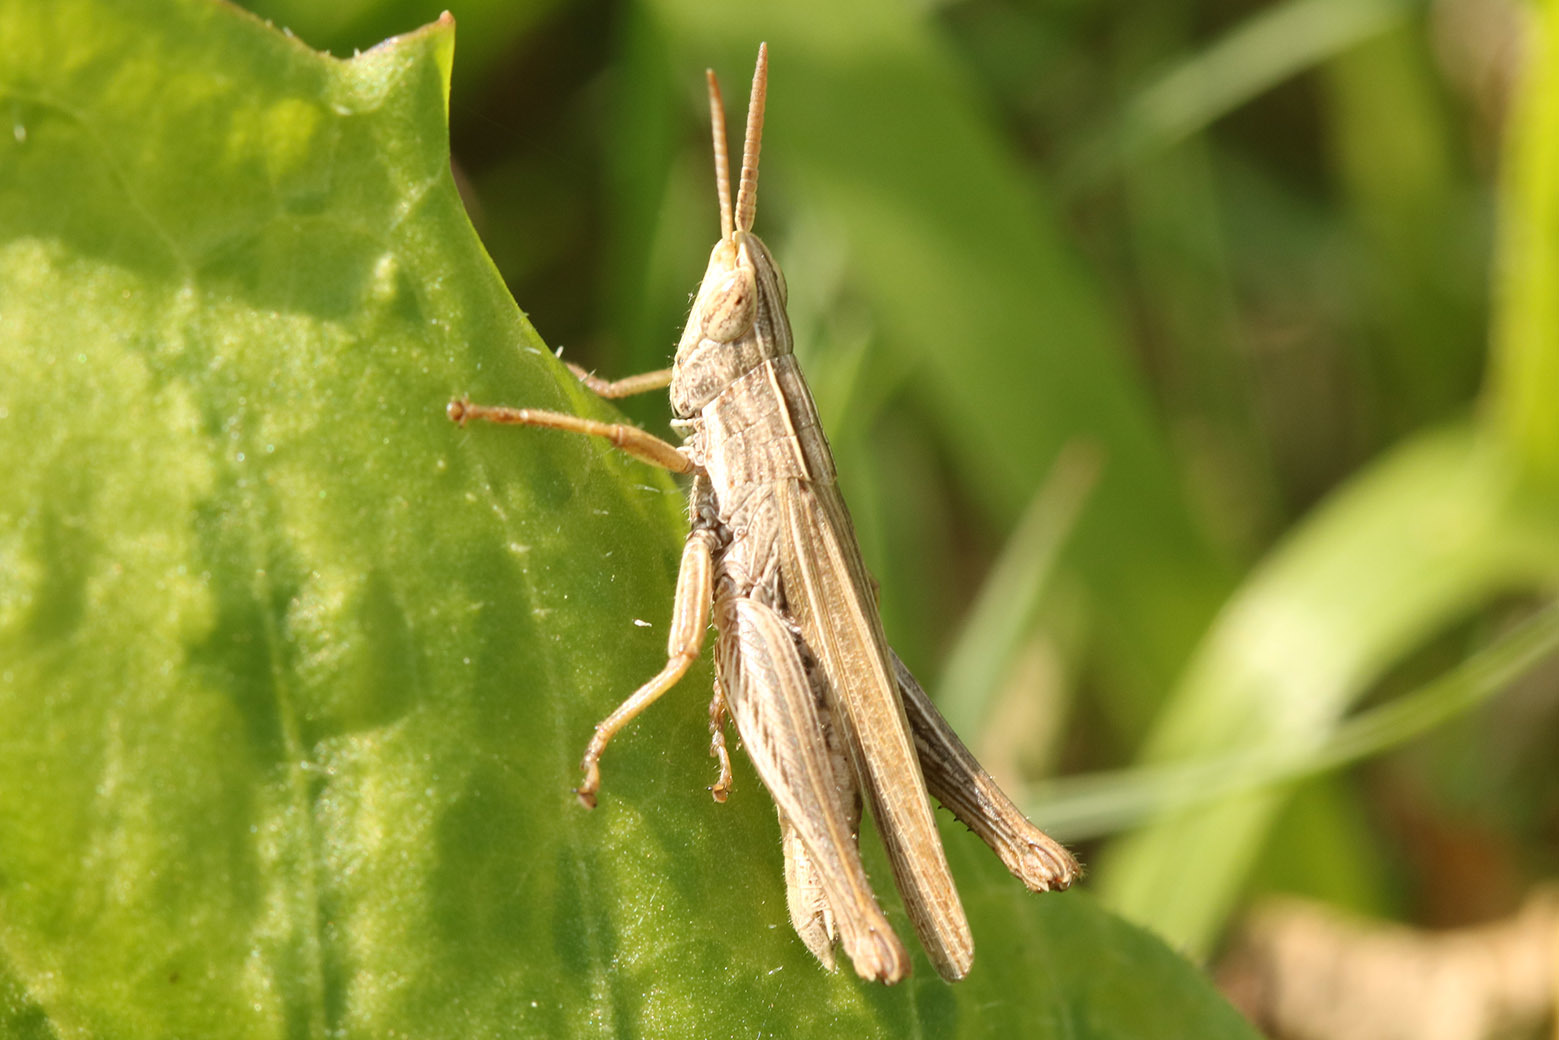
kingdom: Animalia
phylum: Arthropoda
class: Insecta
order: Orthoptera
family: Acrididae
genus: Laplatacris
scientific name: Laplatacris dispar
